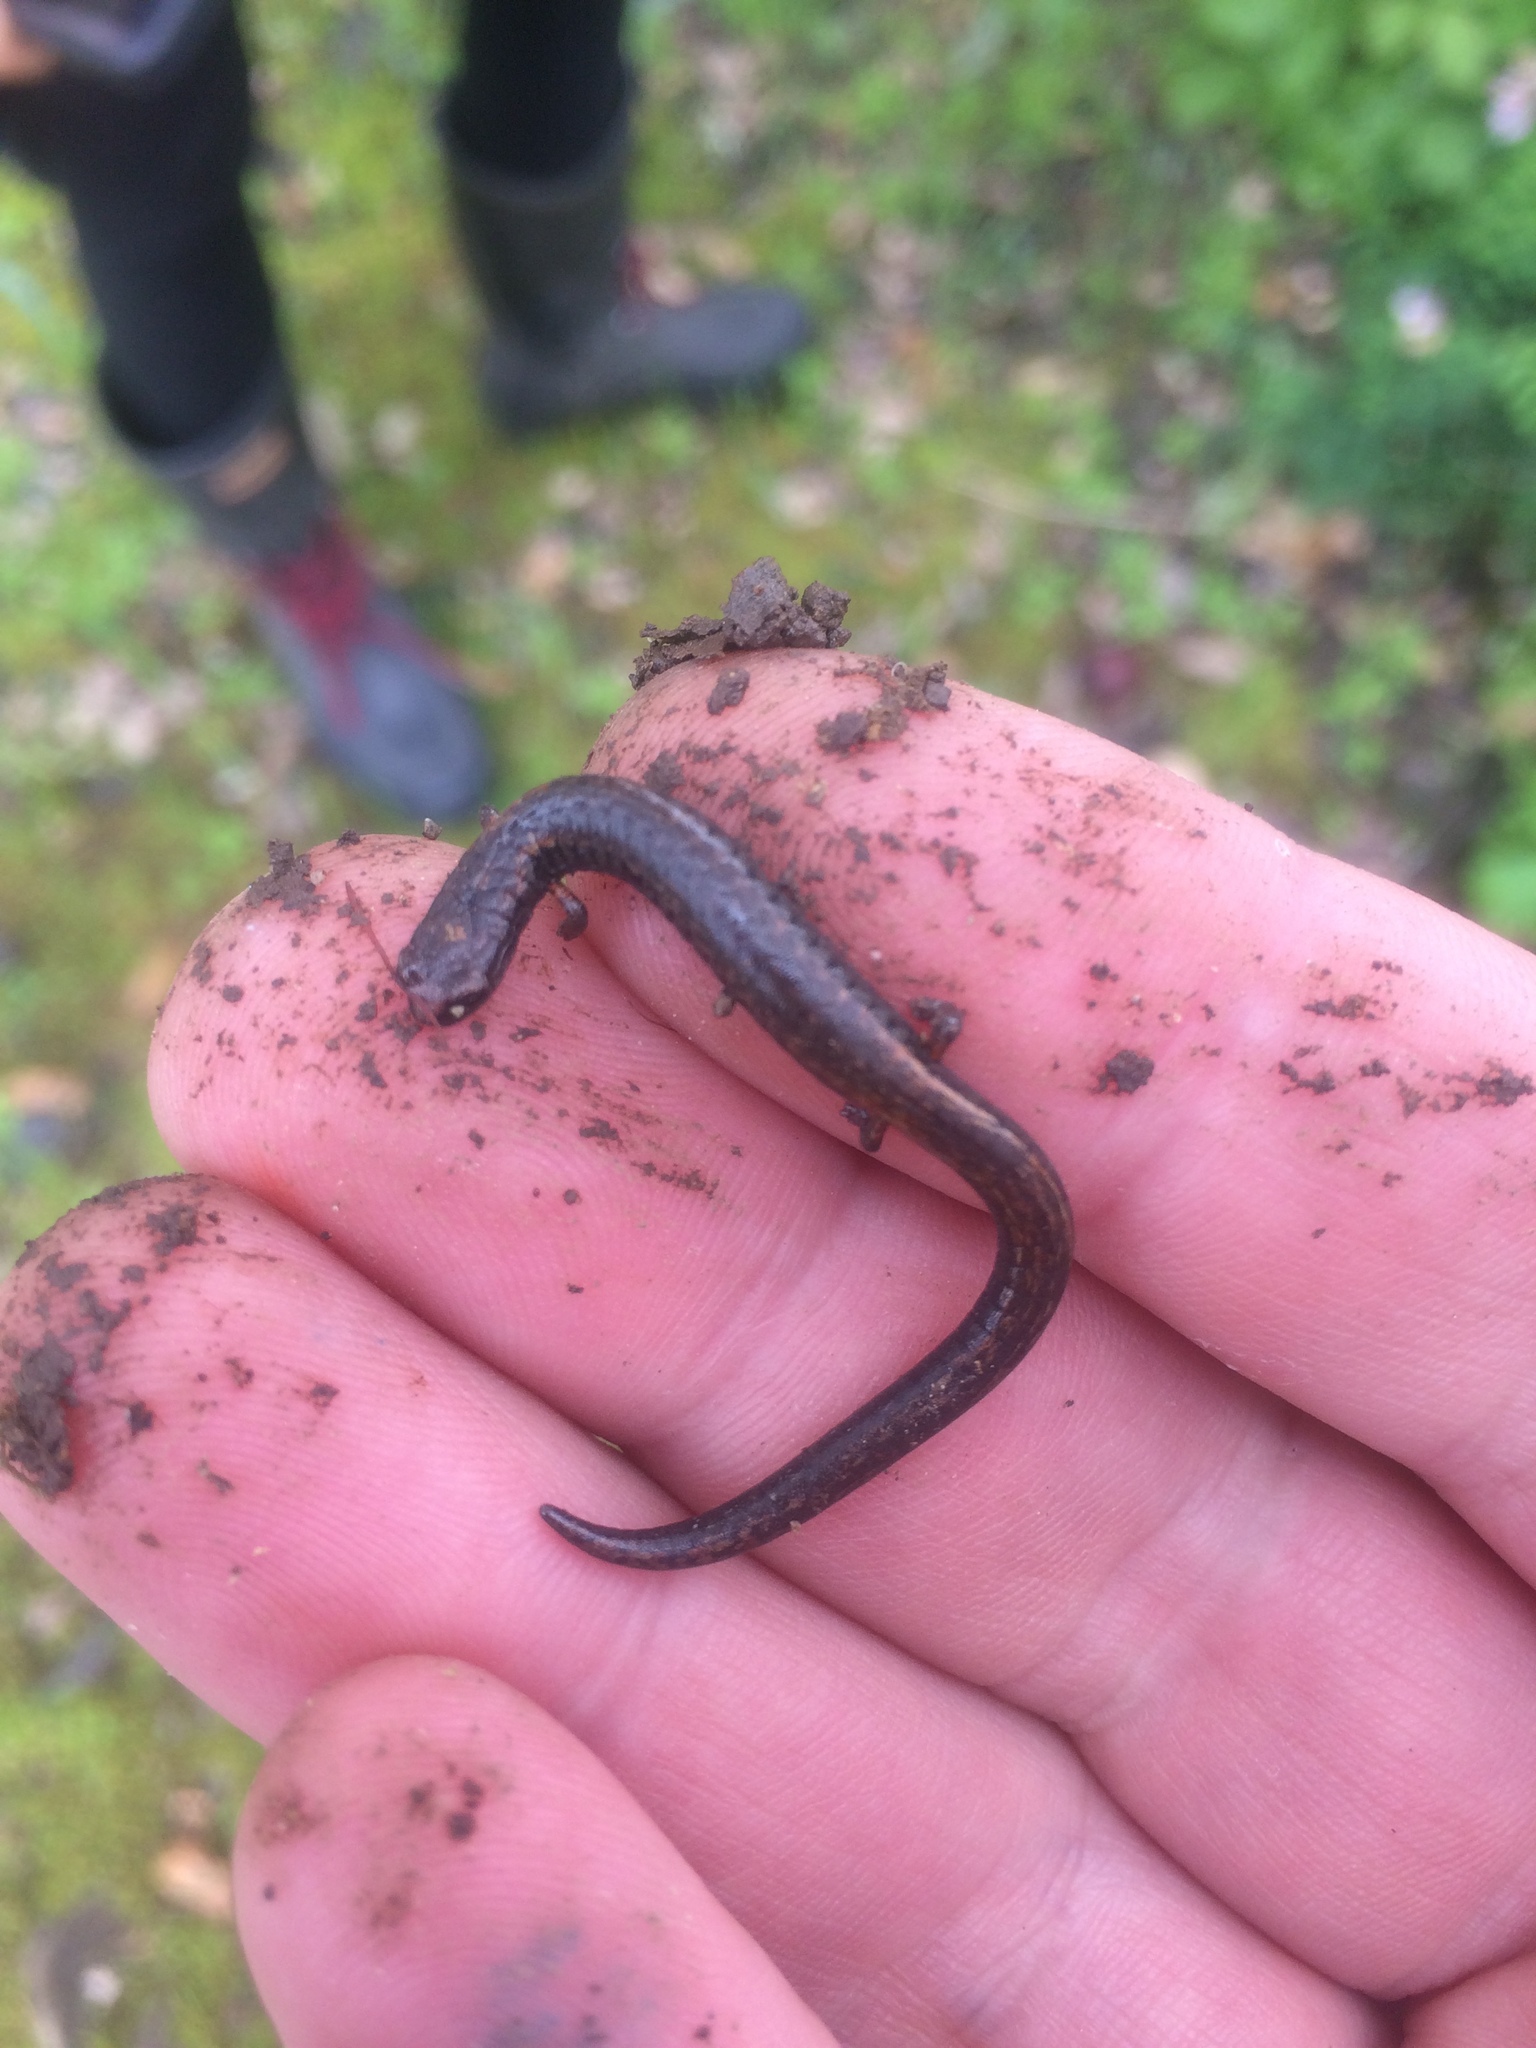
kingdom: Animalia
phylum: Chordata
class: Amphibia
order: Caudata
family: Plethodontidae
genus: Batrachoseps
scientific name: Batrachoseps attenuatus
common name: California slender salamander
